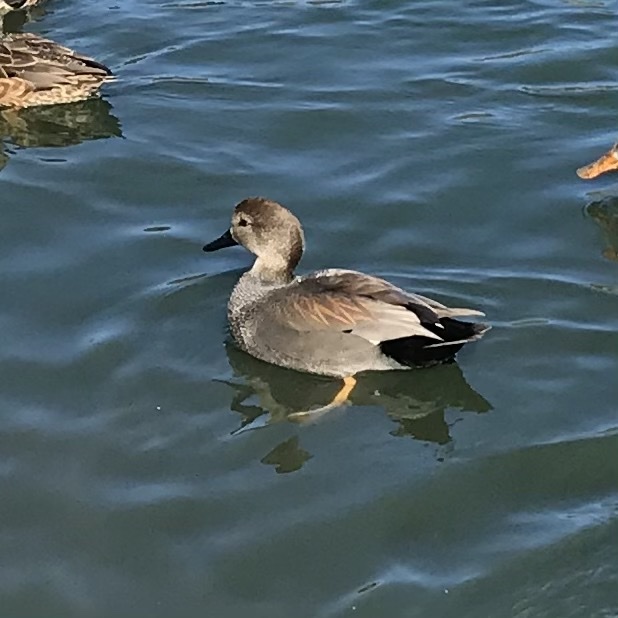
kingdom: Animalia
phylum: Chordata
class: Aves
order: Anseriformes
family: Anatidae
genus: Mareca
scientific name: Mareca strepera
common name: Gadwall
